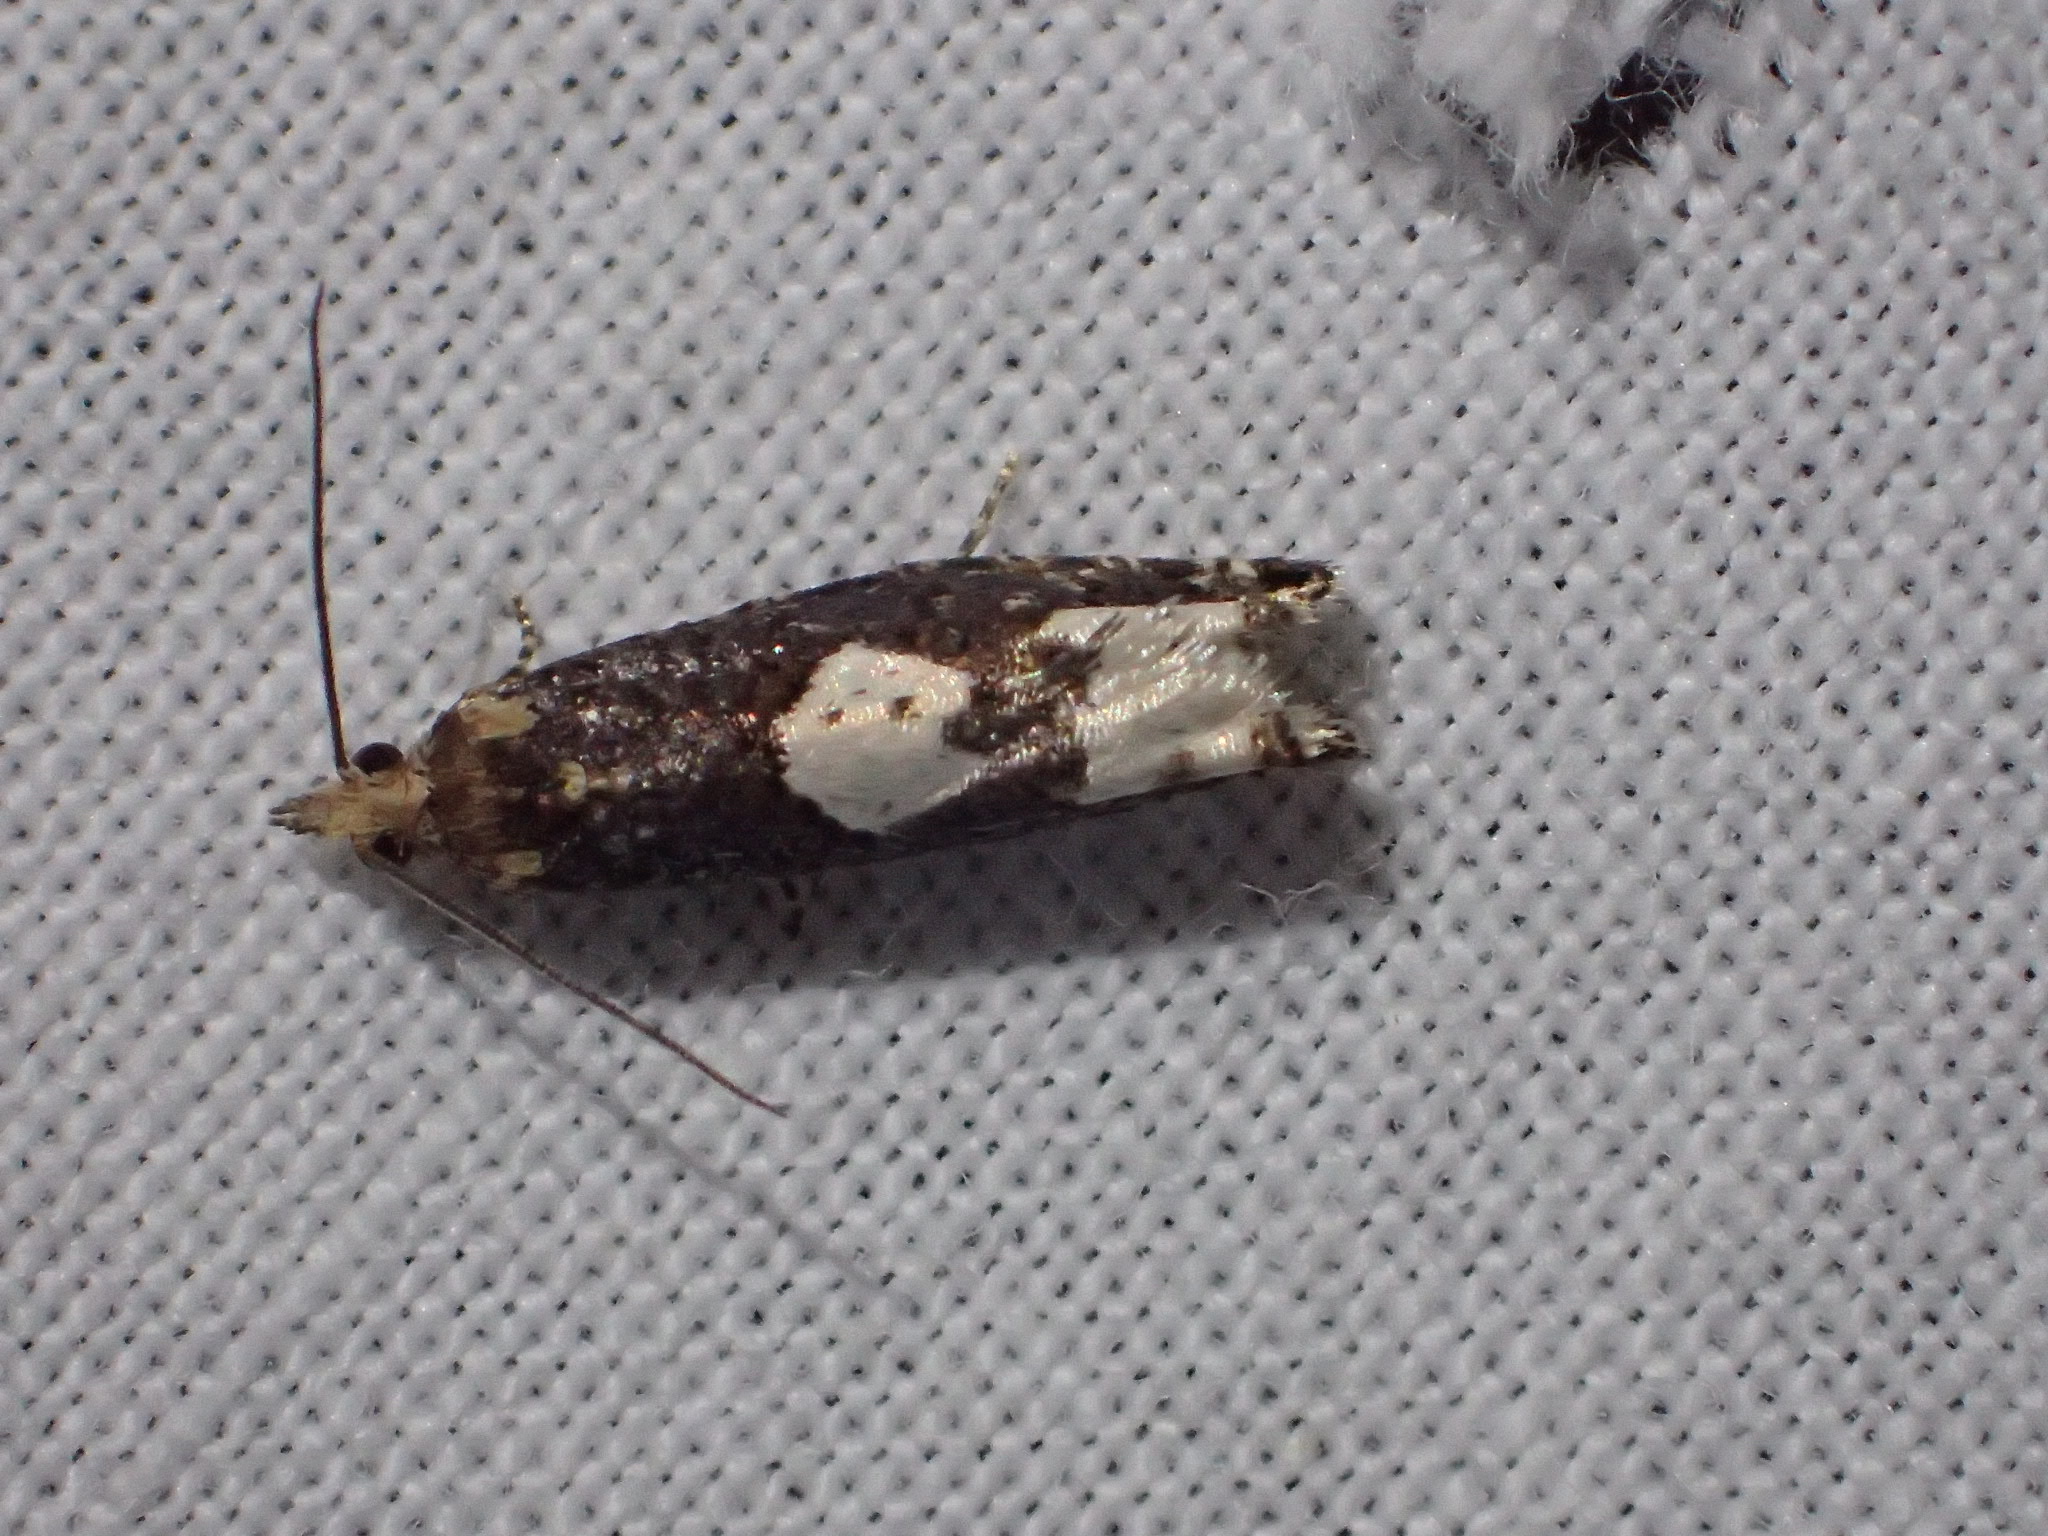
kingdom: Animalia
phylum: Arthropoda
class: Insecta
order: Lepidoptera
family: Tortricidae
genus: Epinotia
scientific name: Epinotia trigonella
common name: White-blotch bell
